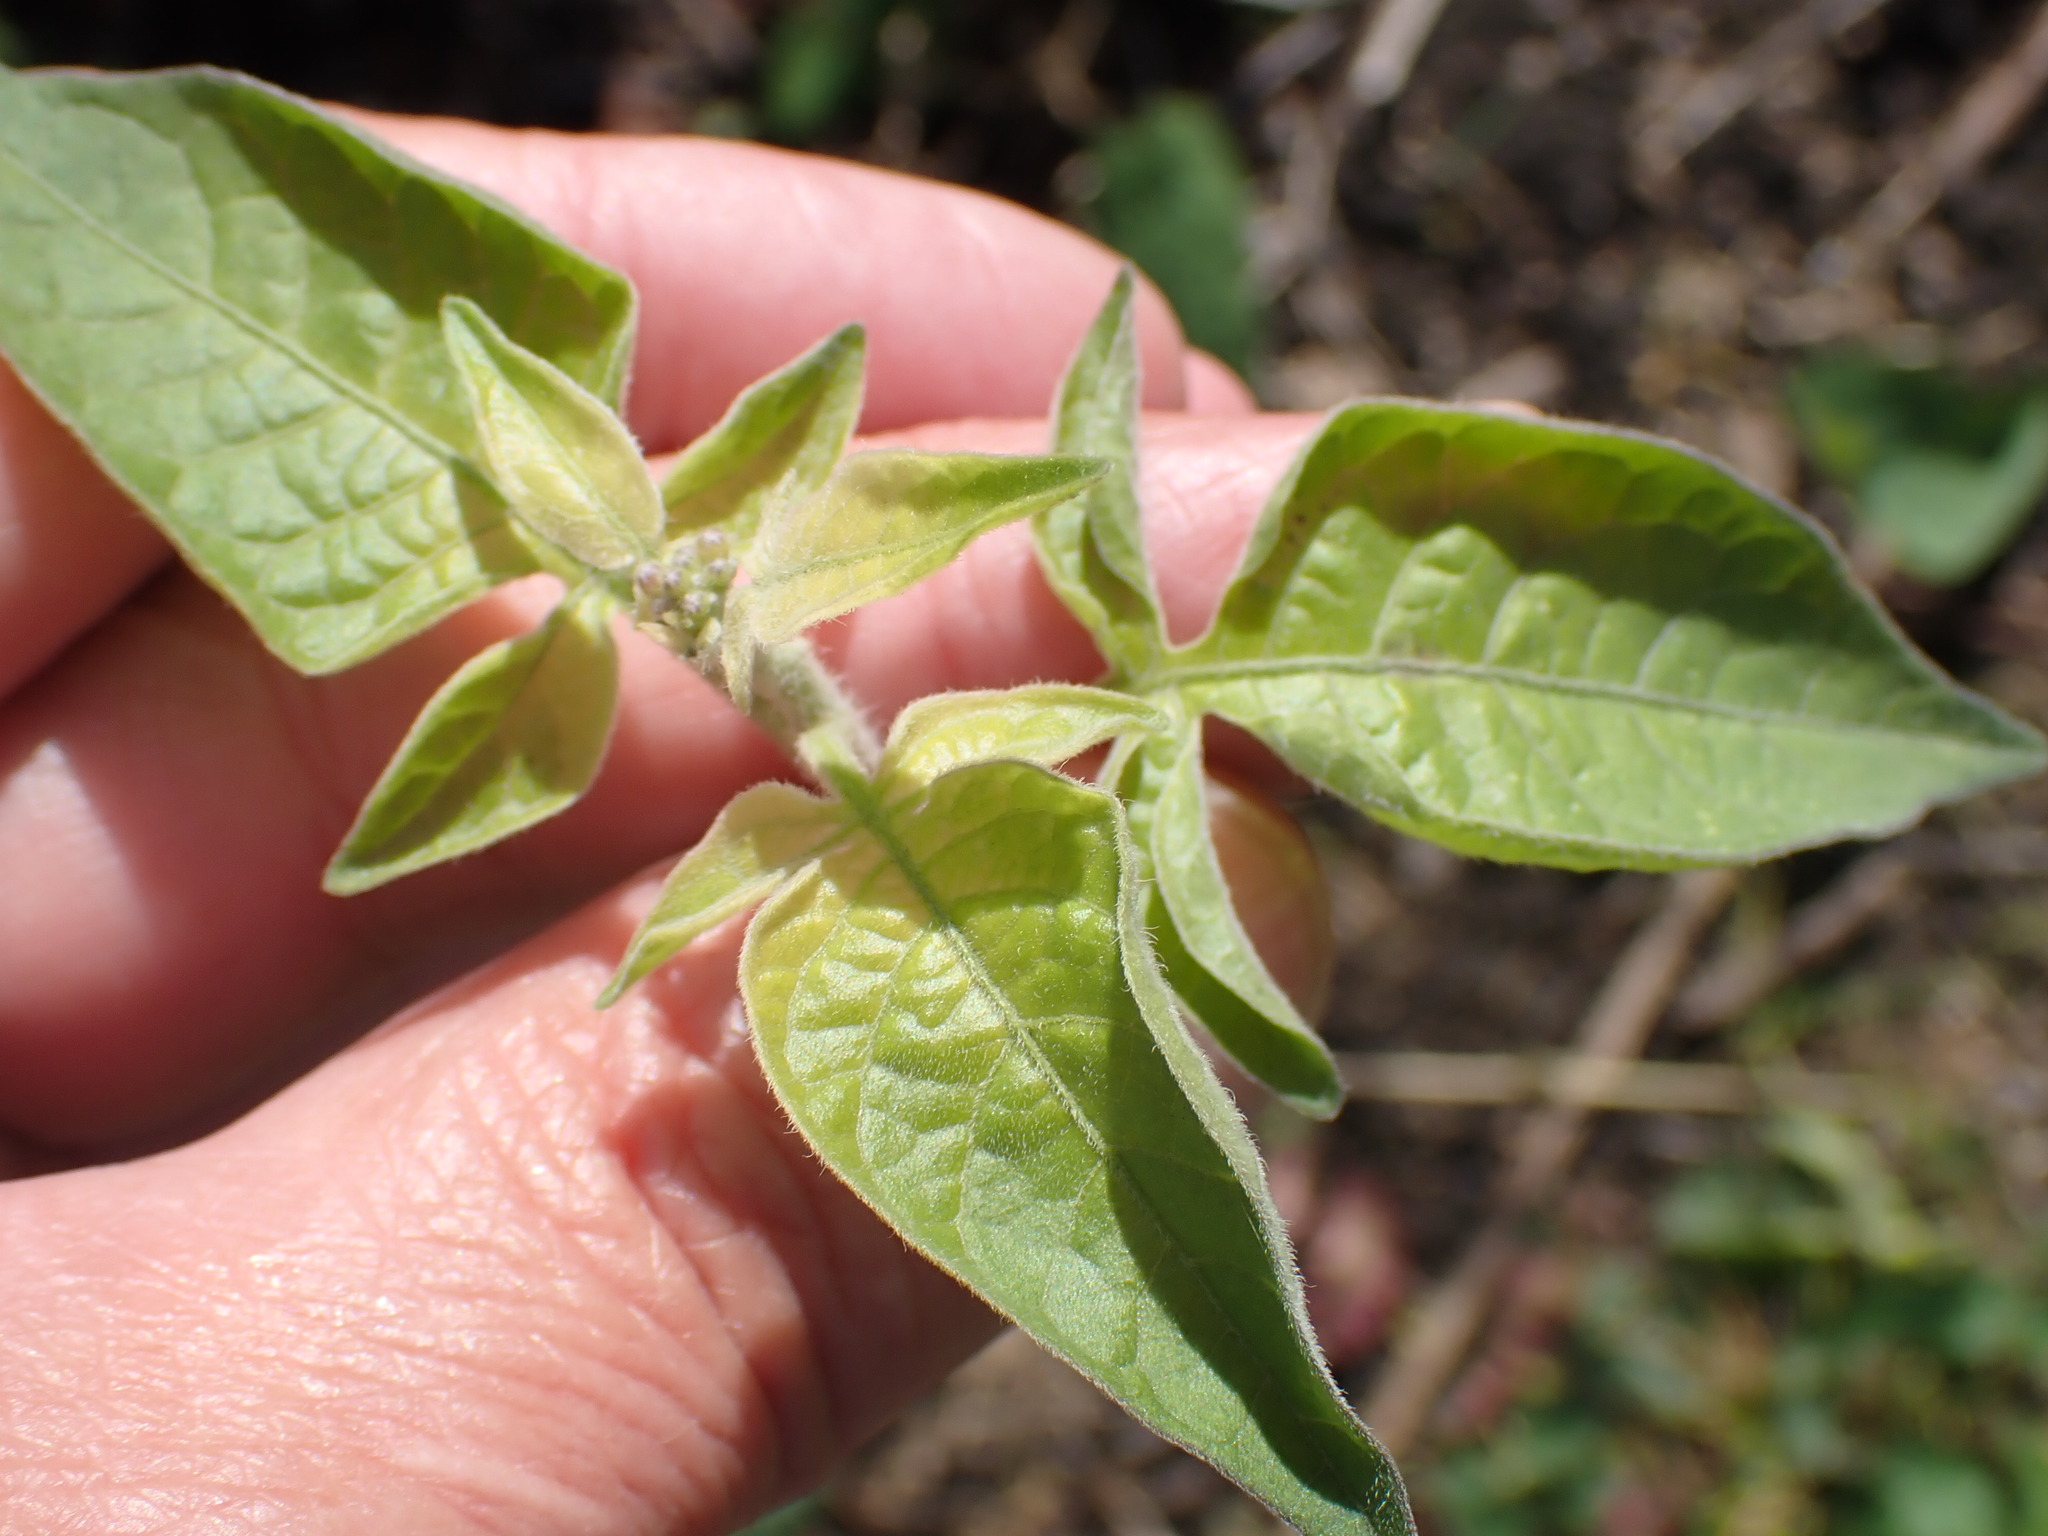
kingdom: Plantae
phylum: Tracheophyta
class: Magnoliopsida
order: Solanales
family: Solanaceae
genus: Solanum
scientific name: Solanum dulcamara
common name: Climbing nightshade
